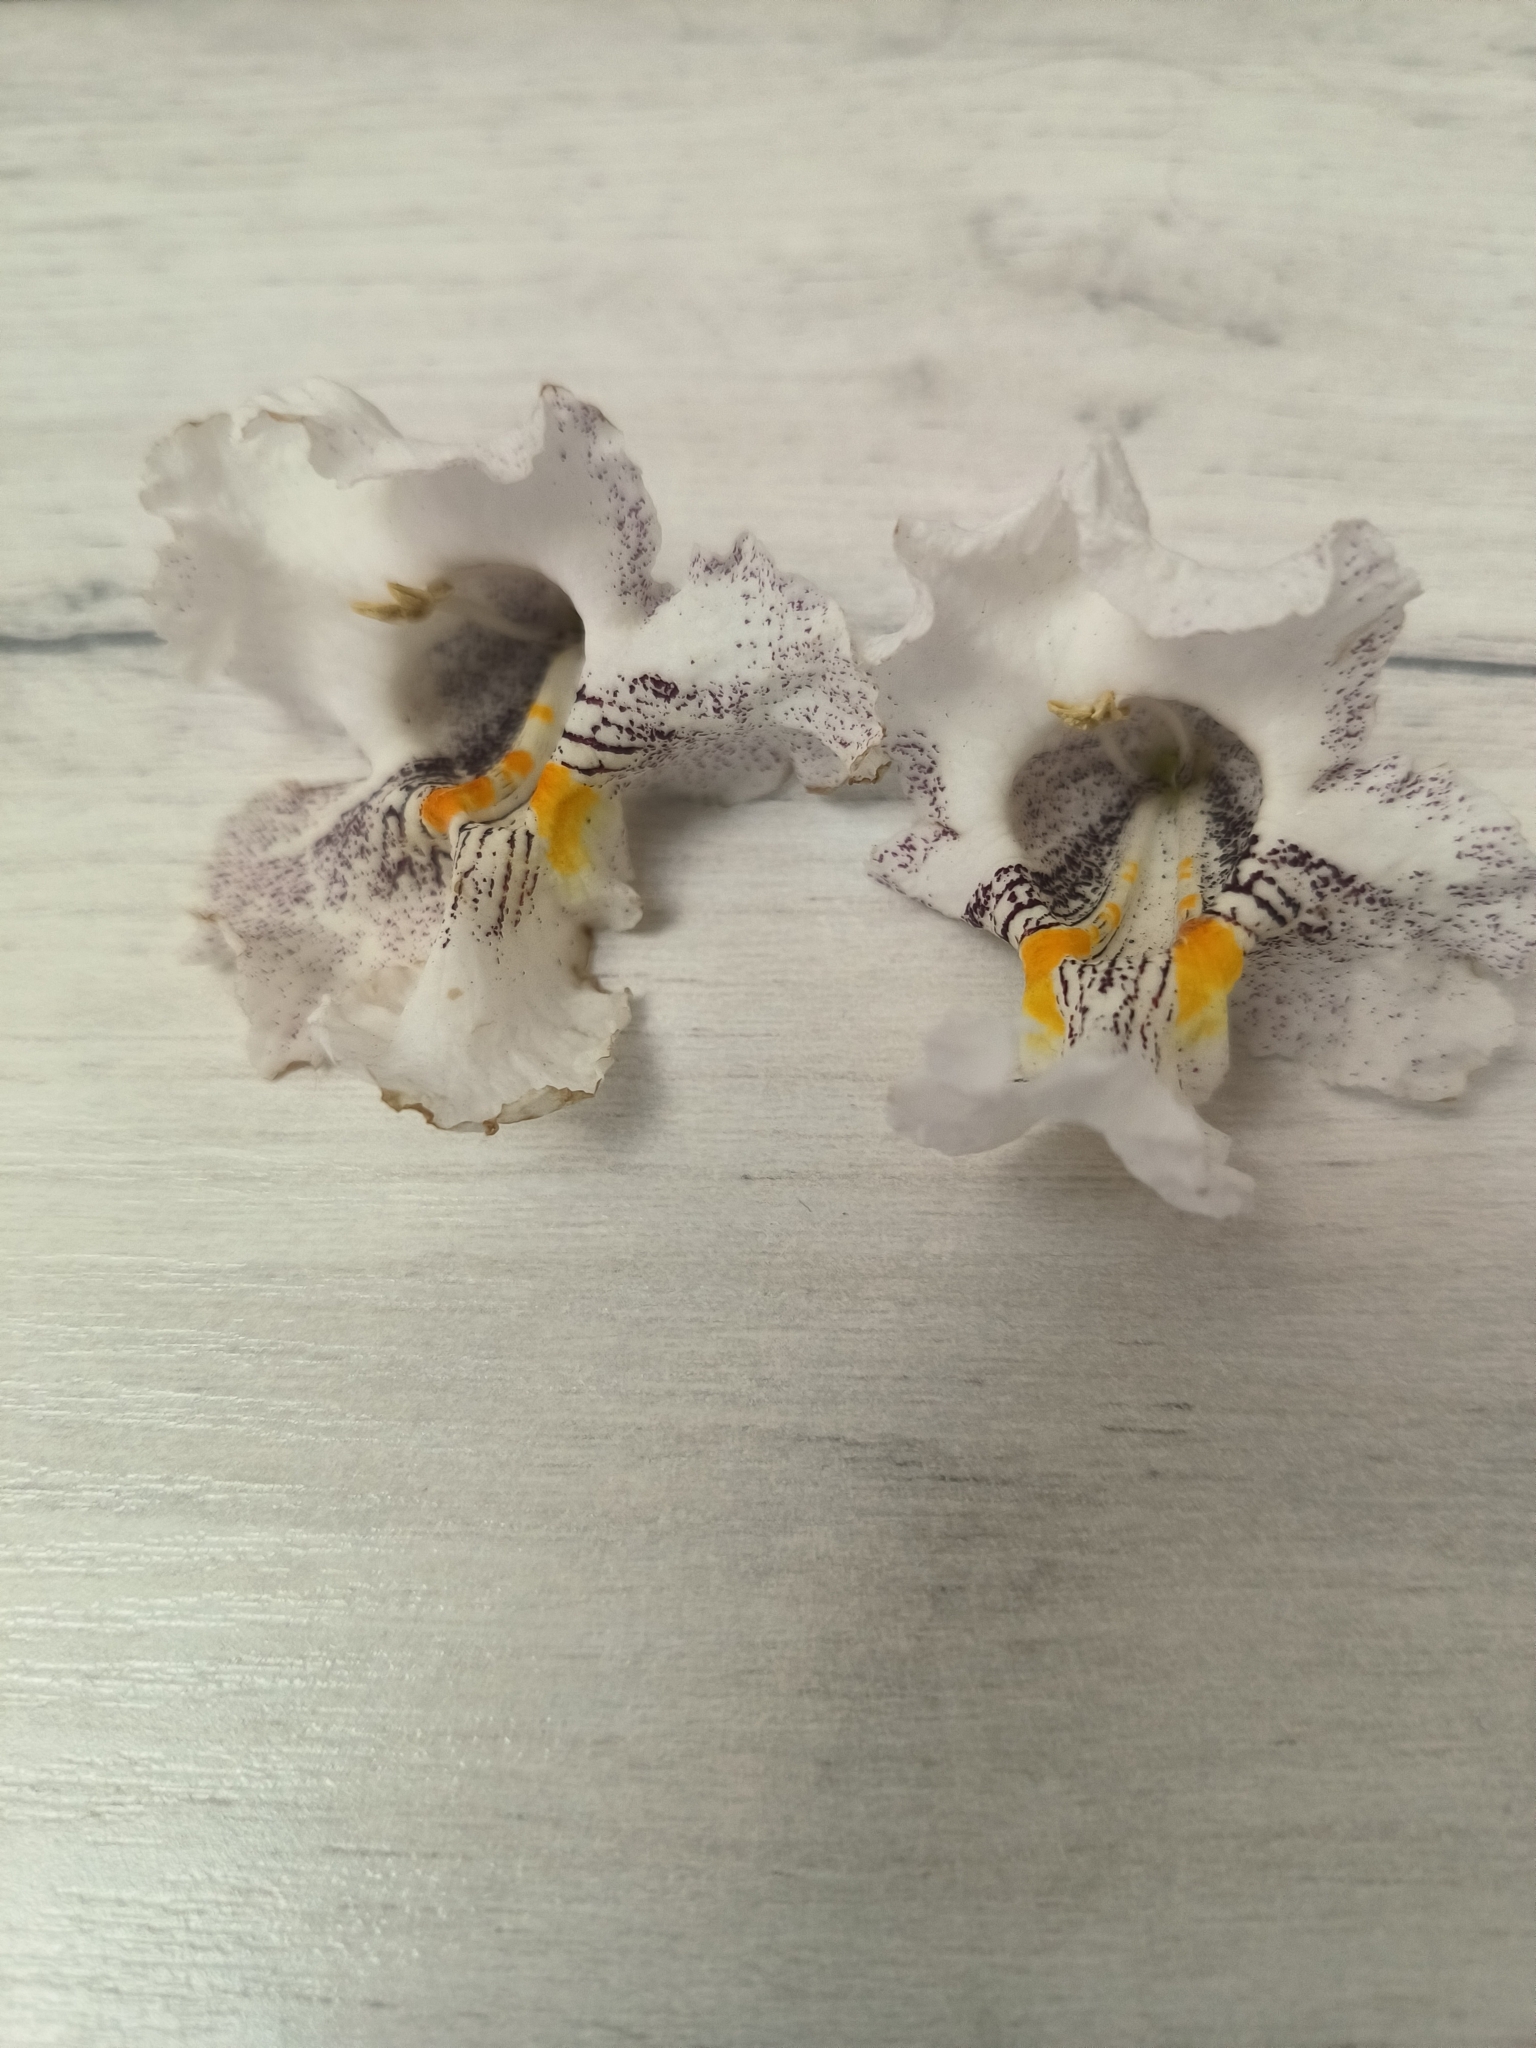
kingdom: Plantae
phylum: Tracheophyta
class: Magnoliopsida
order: Lamiales
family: Bignoniaceae
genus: Catalpa
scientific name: Catalpa bignonioides
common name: Southern catalpa
